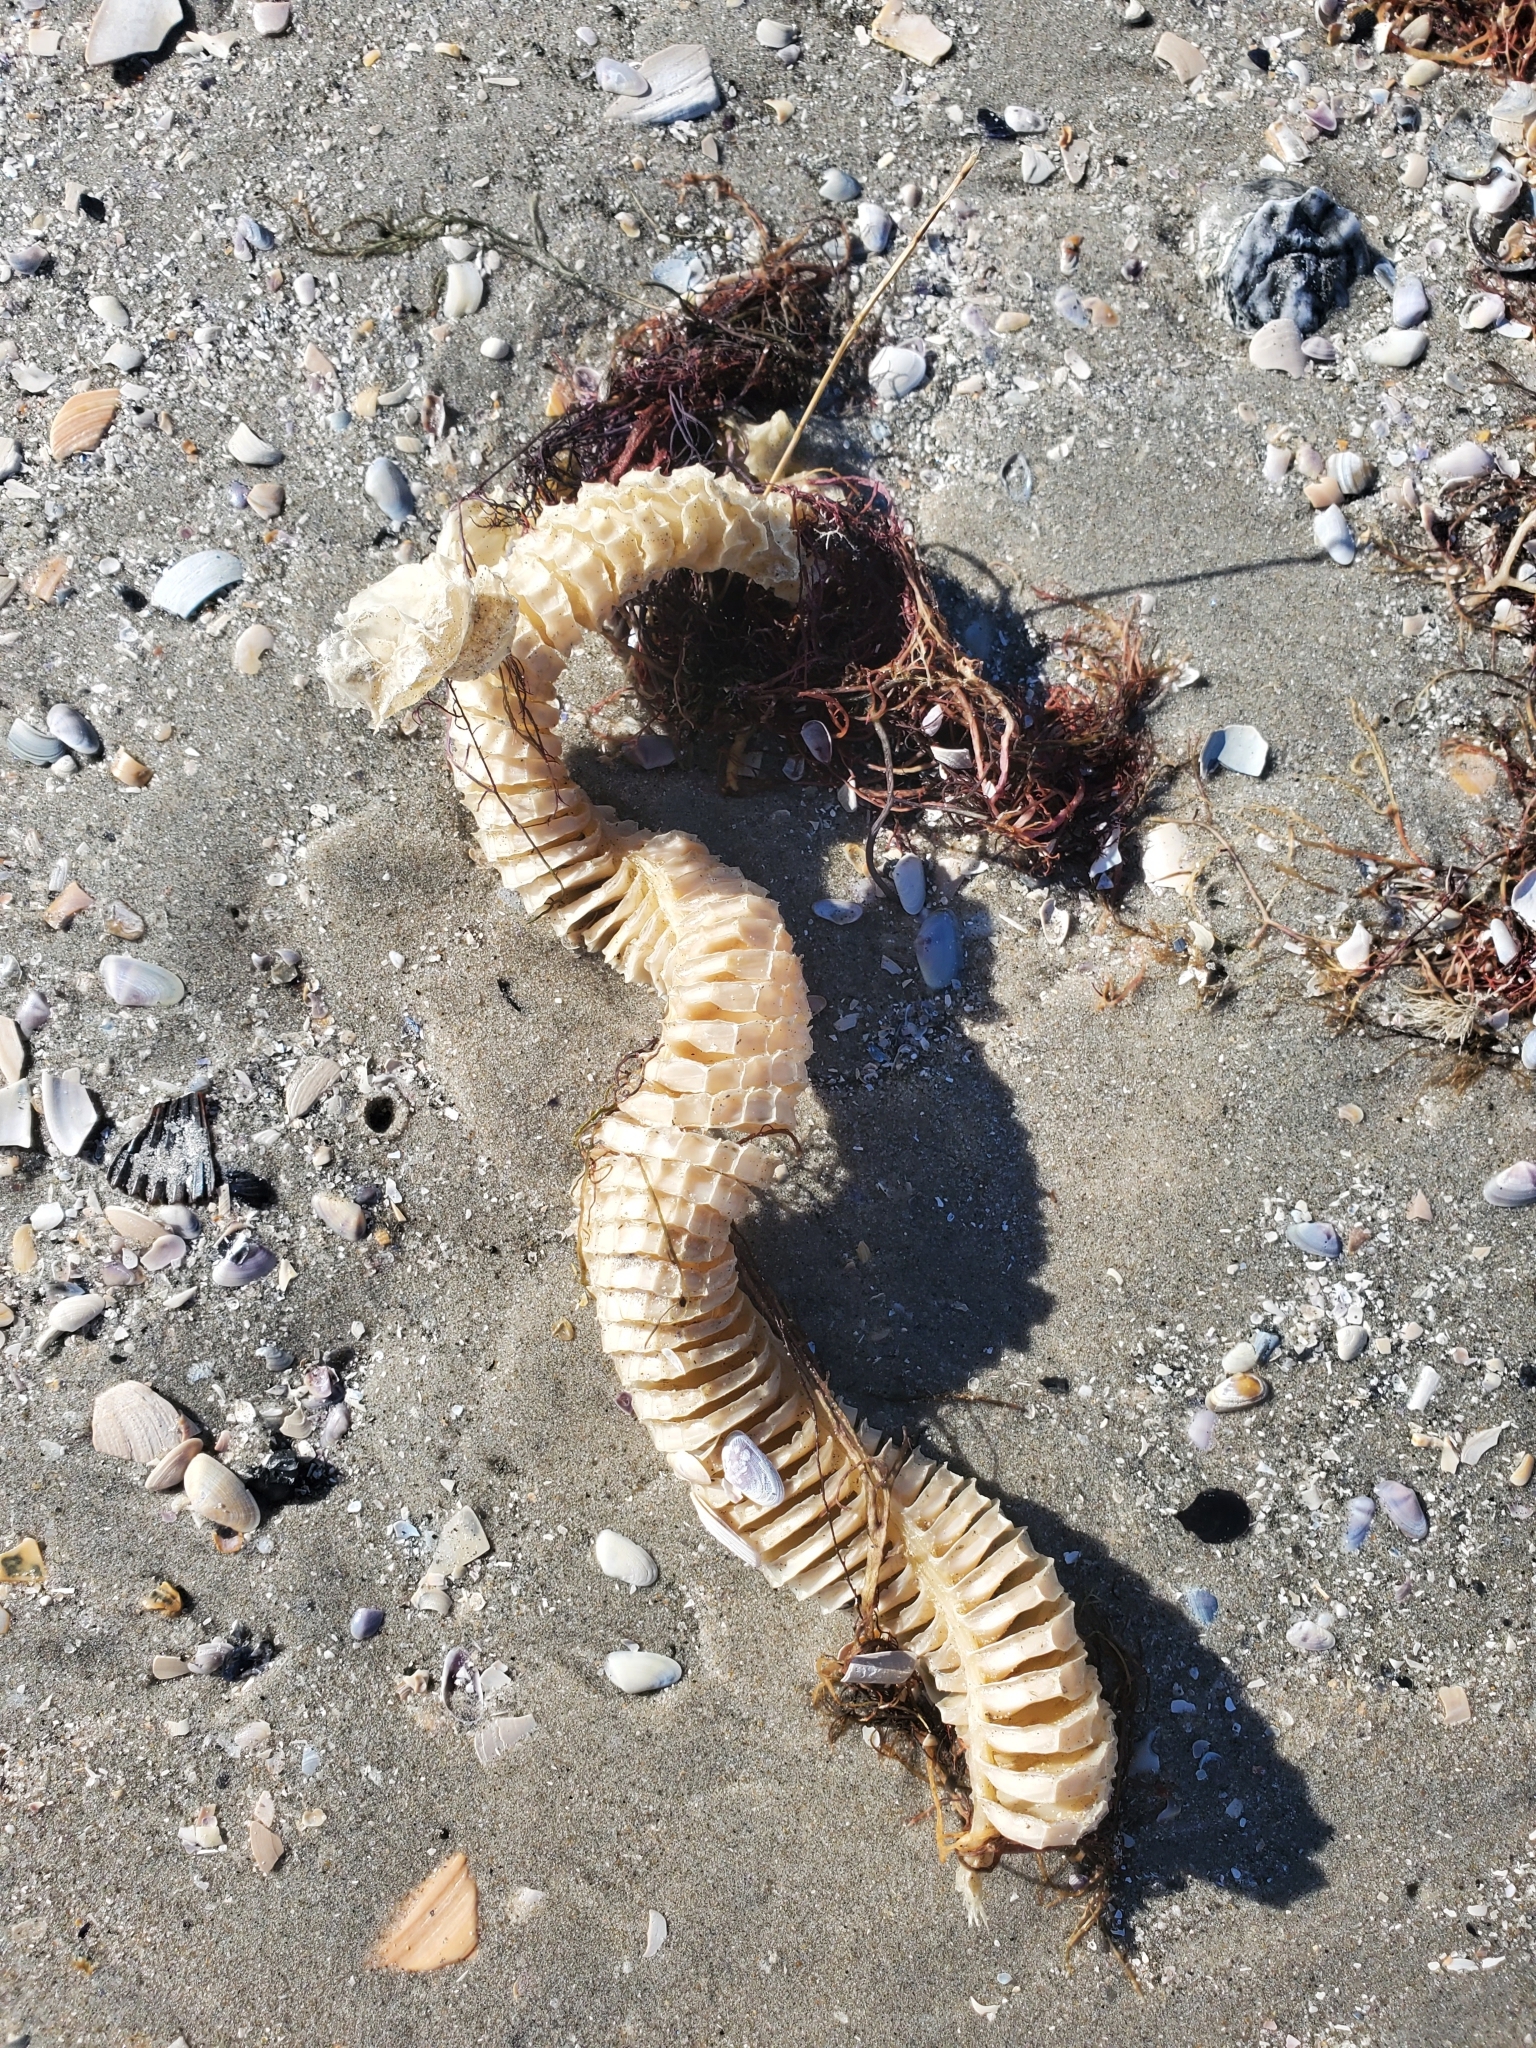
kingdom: Animalia
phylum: Mollusca
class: Gastropoda
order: Neogastropoda
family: Busyconidae
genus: Busycon
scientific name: Busycon carica
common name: Knobbed whelk
